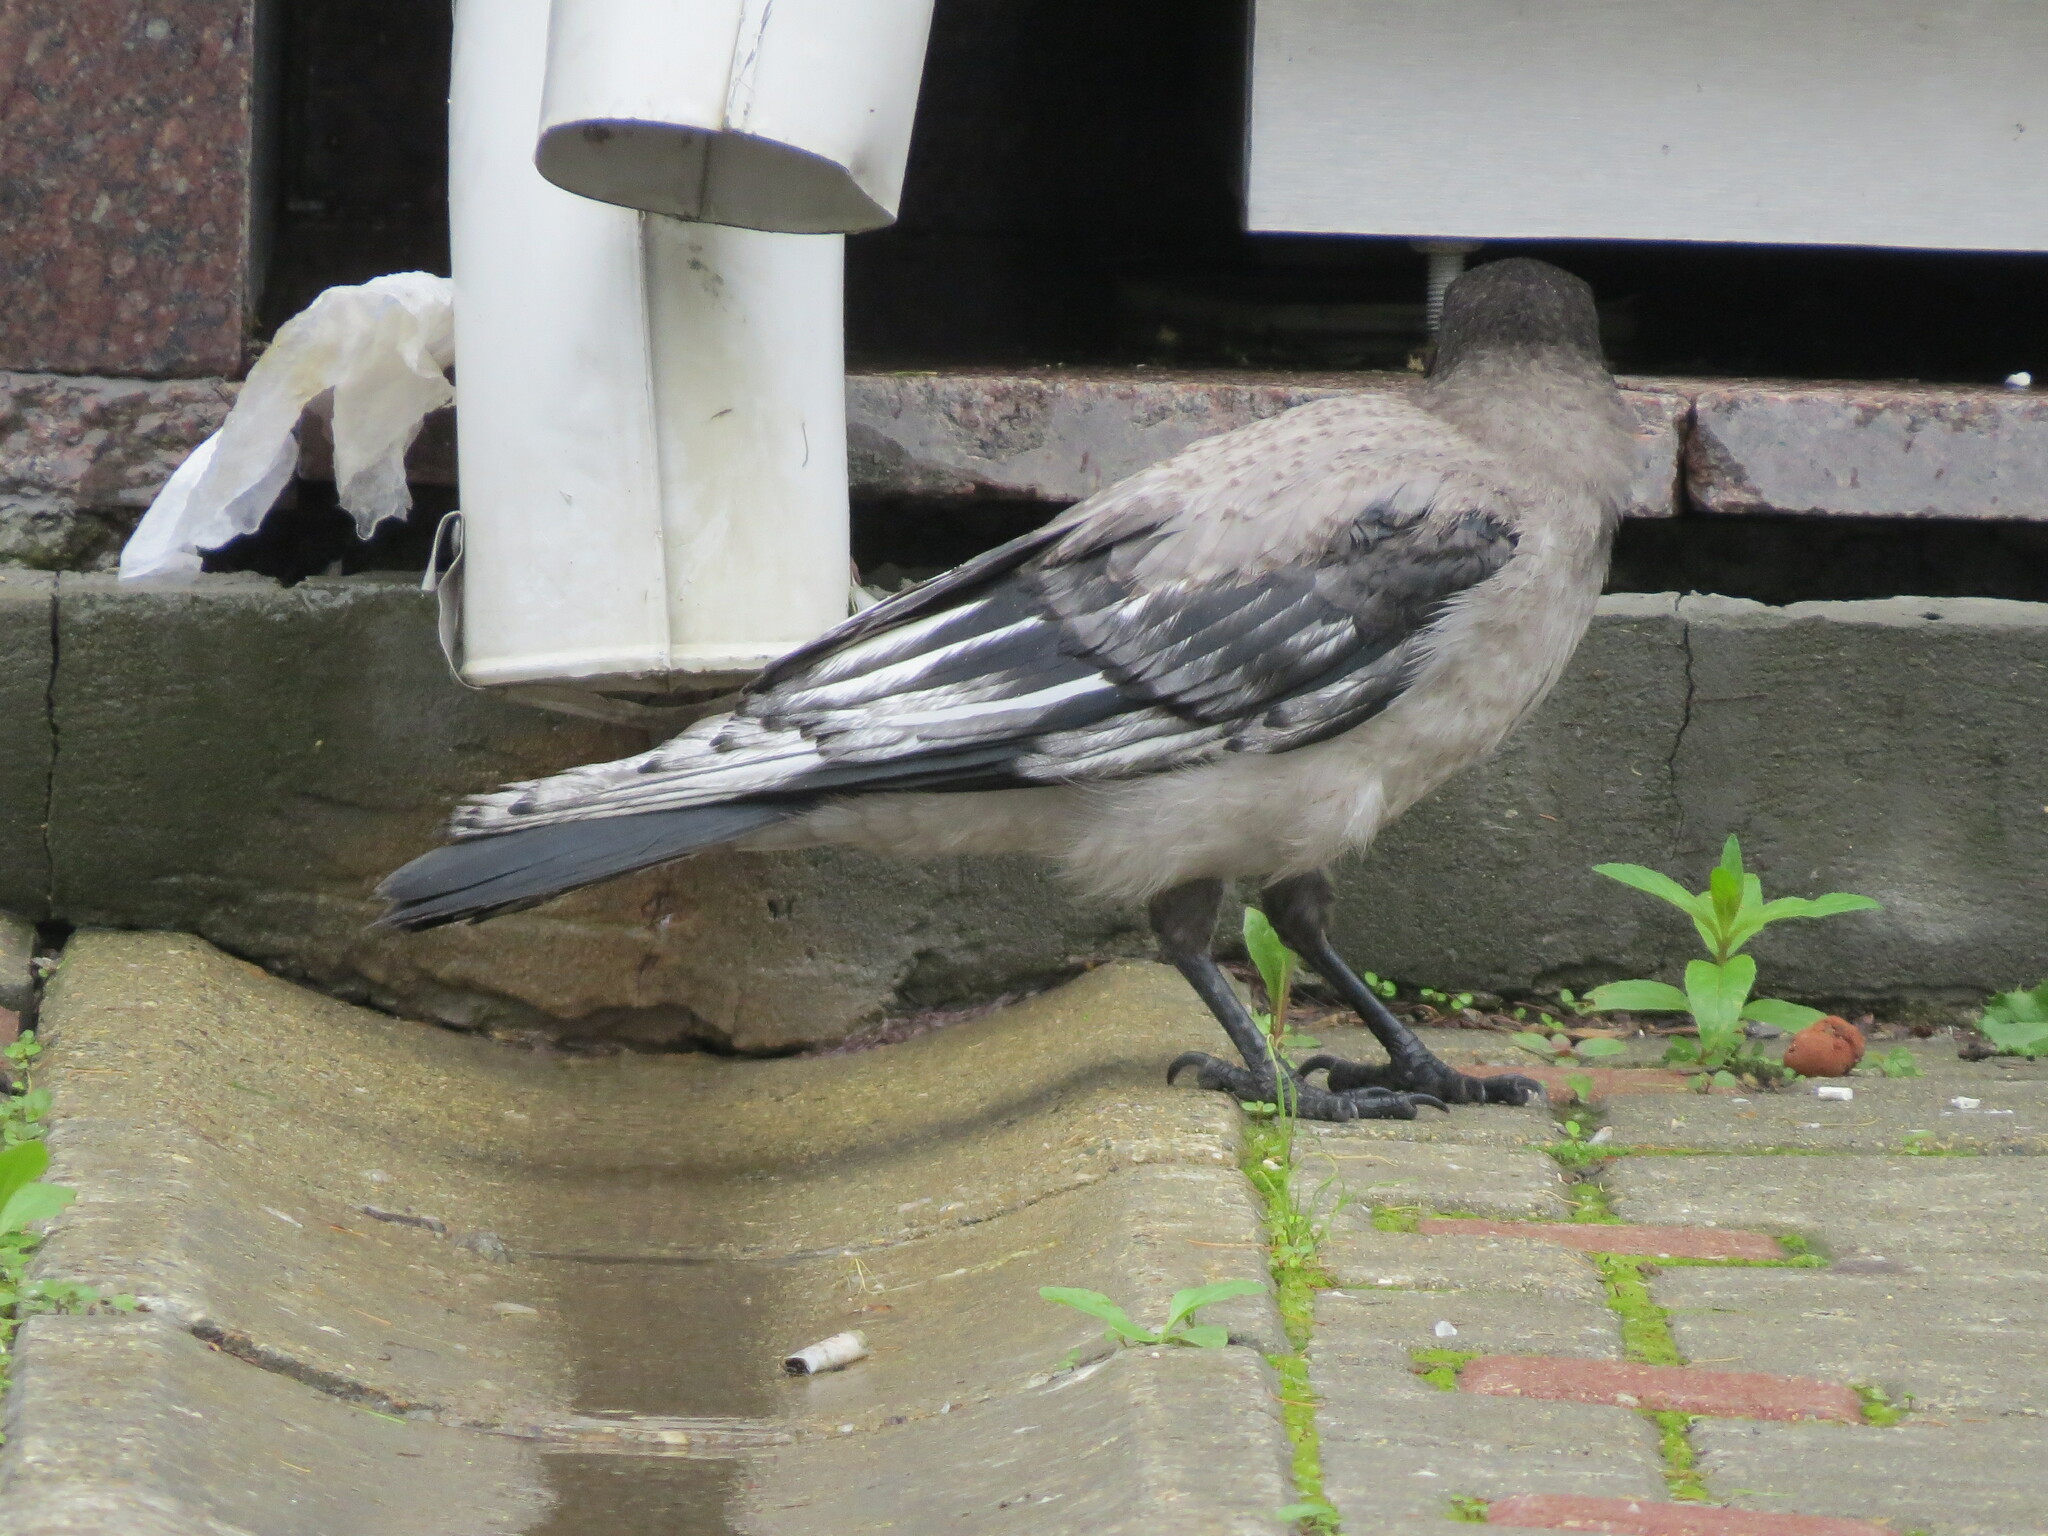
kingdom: Animalia
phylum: Chordata
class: Aves
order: Passeriformes
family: Corvidae
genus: Corvus
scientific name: Corvus cornix
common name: Hooded crow
